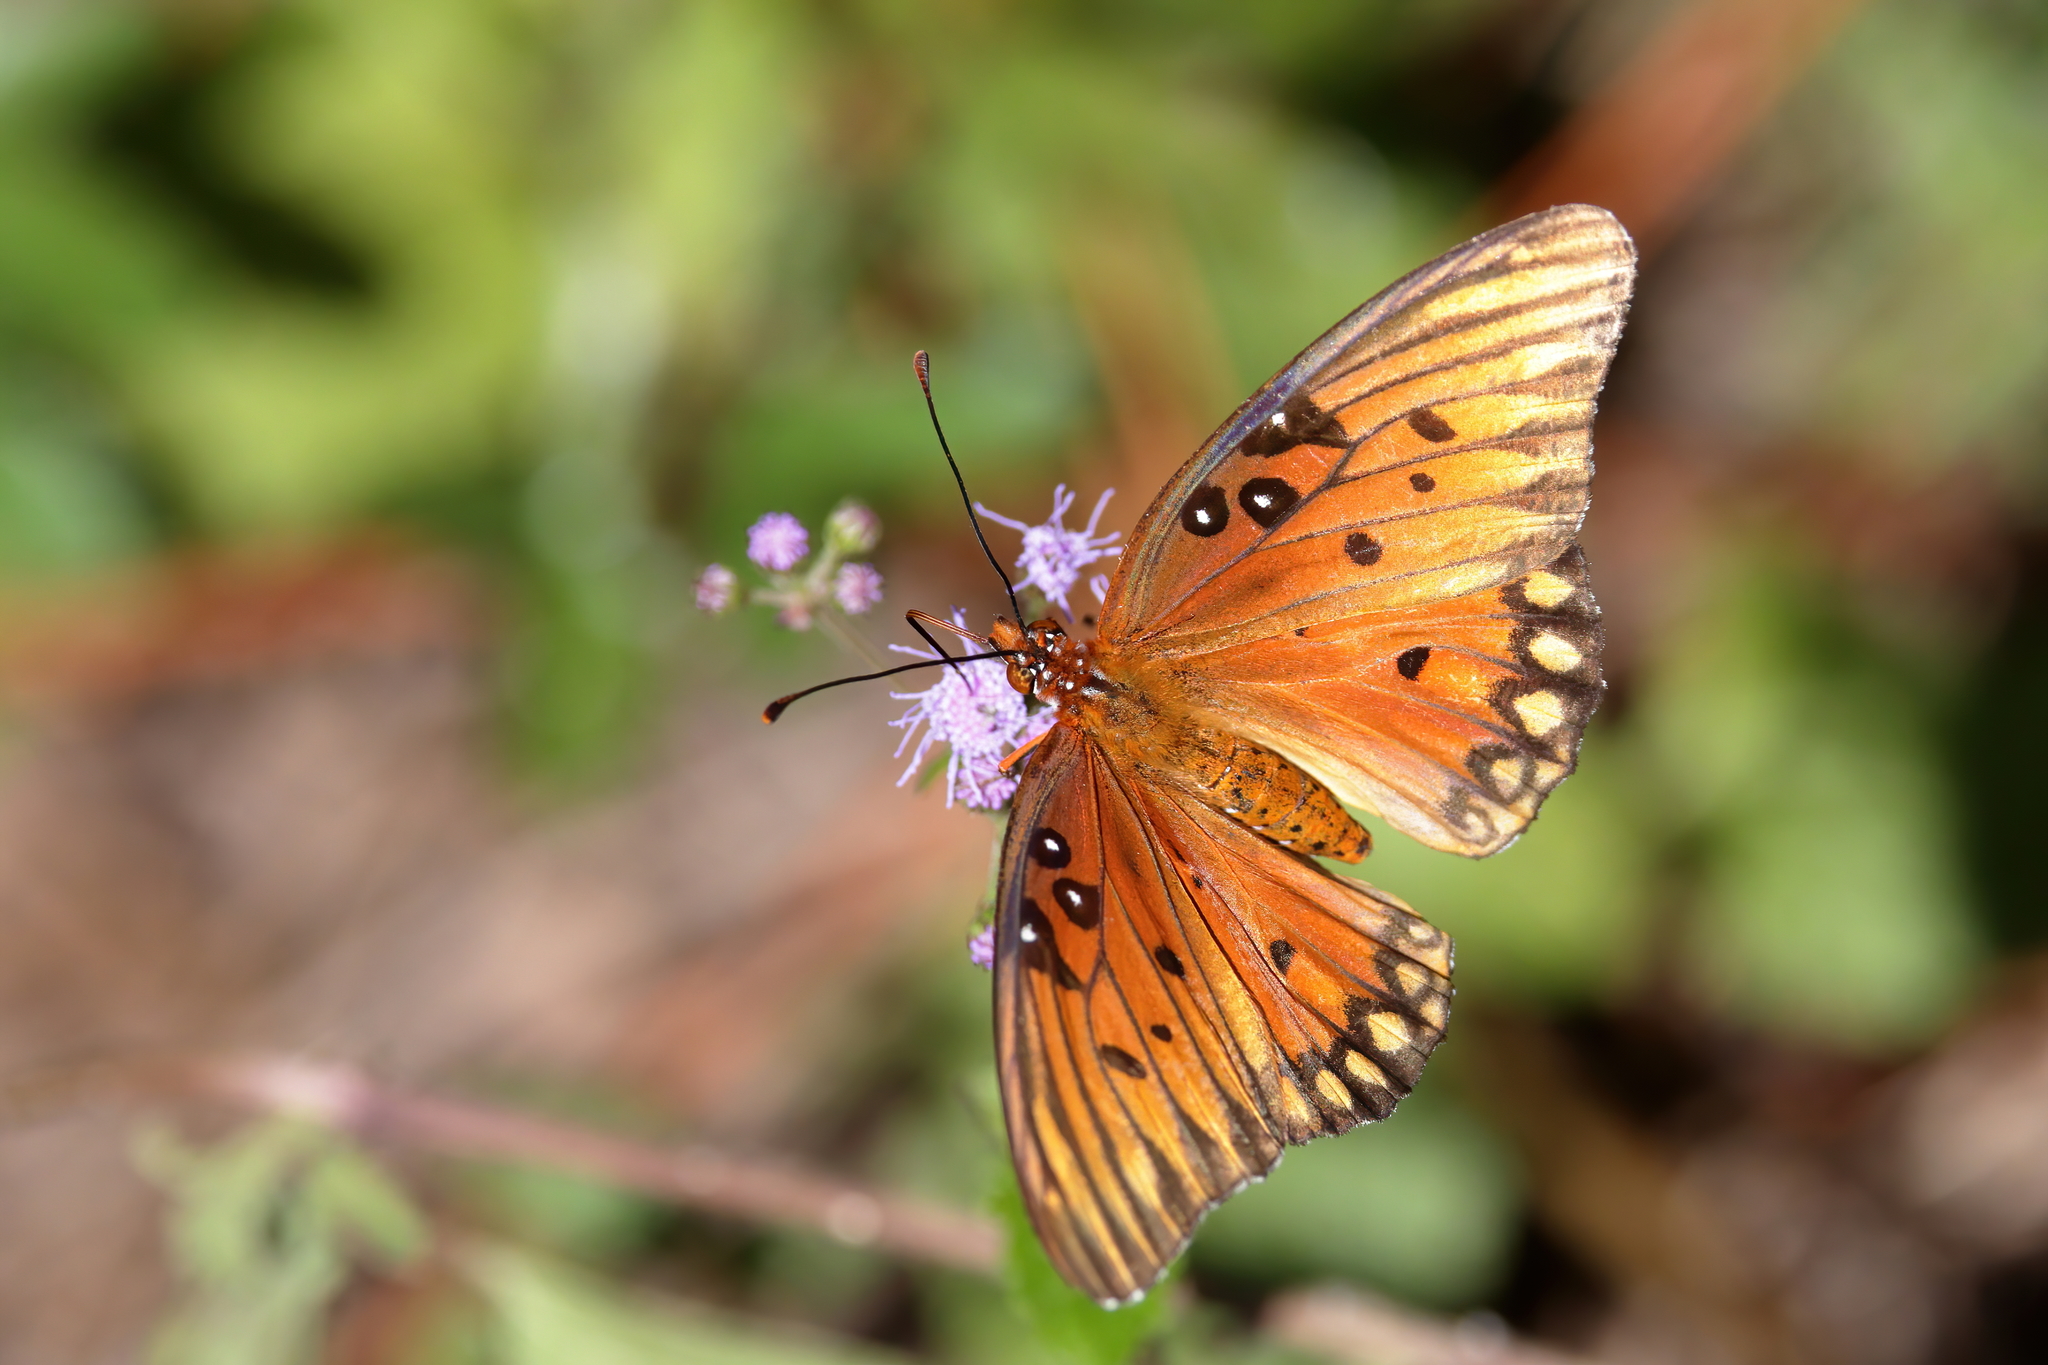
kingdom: Animalia
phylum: Arthropoda
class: Insecta
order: Lepidoptera
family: Nymphalidae
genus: Dione
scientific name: Dione vanillae
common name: Gulf fritillary
